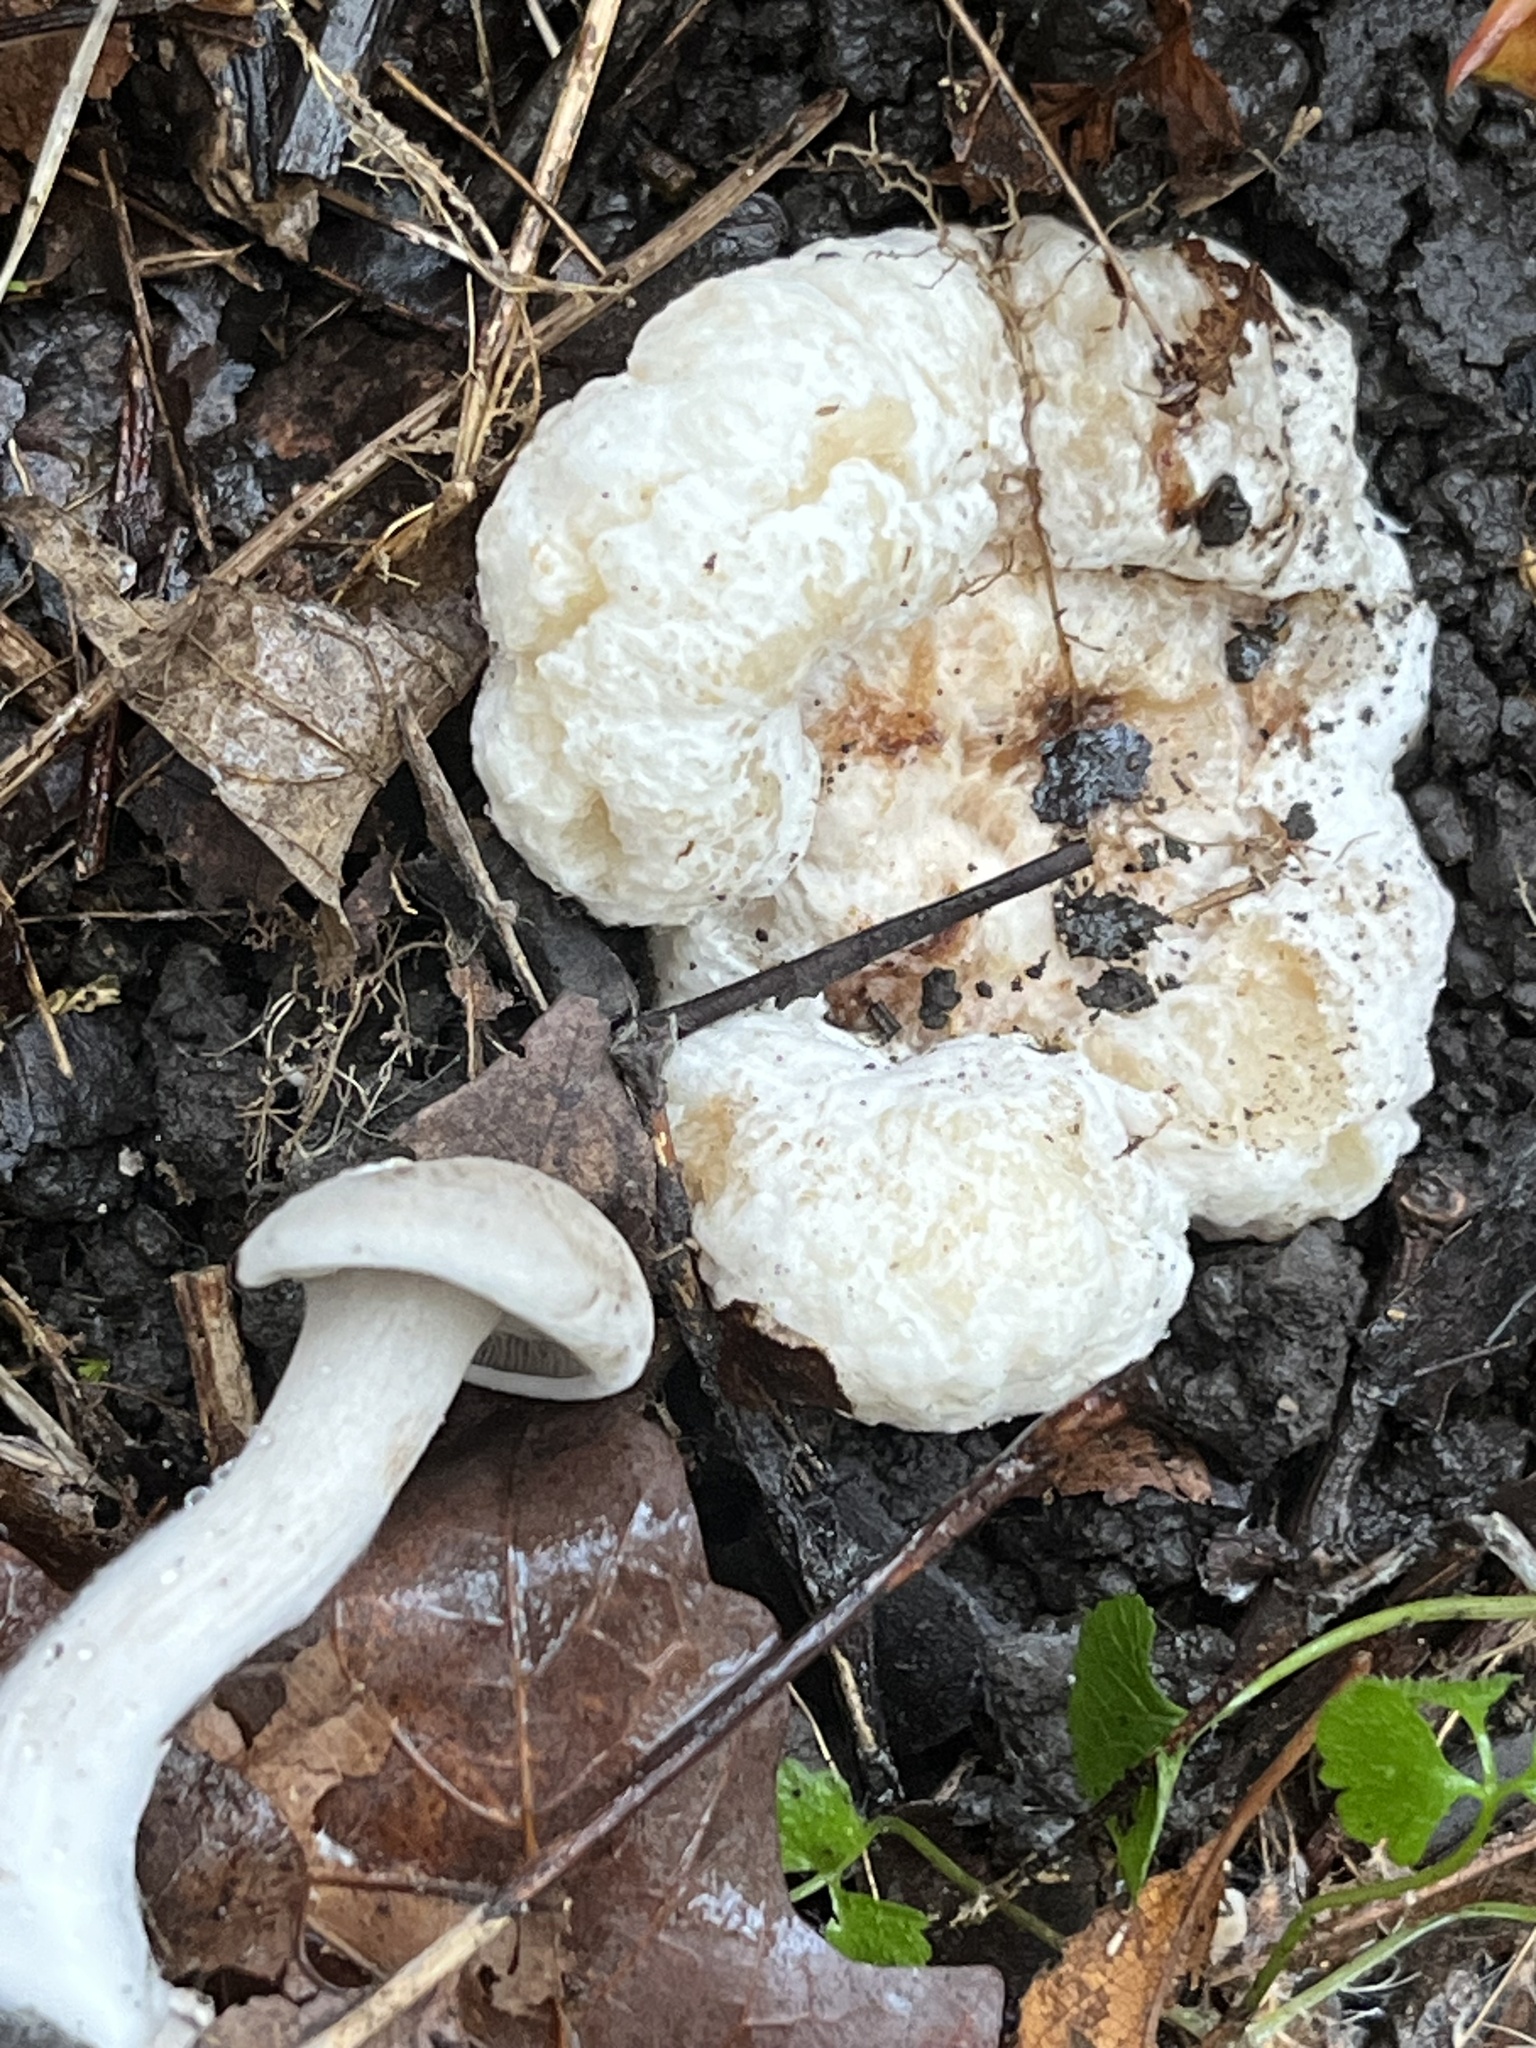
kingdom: Fungi
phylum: Basidiomycota
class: Agaricomycetes
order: Agaricales
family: Entolomataceae
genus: Entoloma
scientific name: Entoloma abortivum
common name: Aborted entoloma
